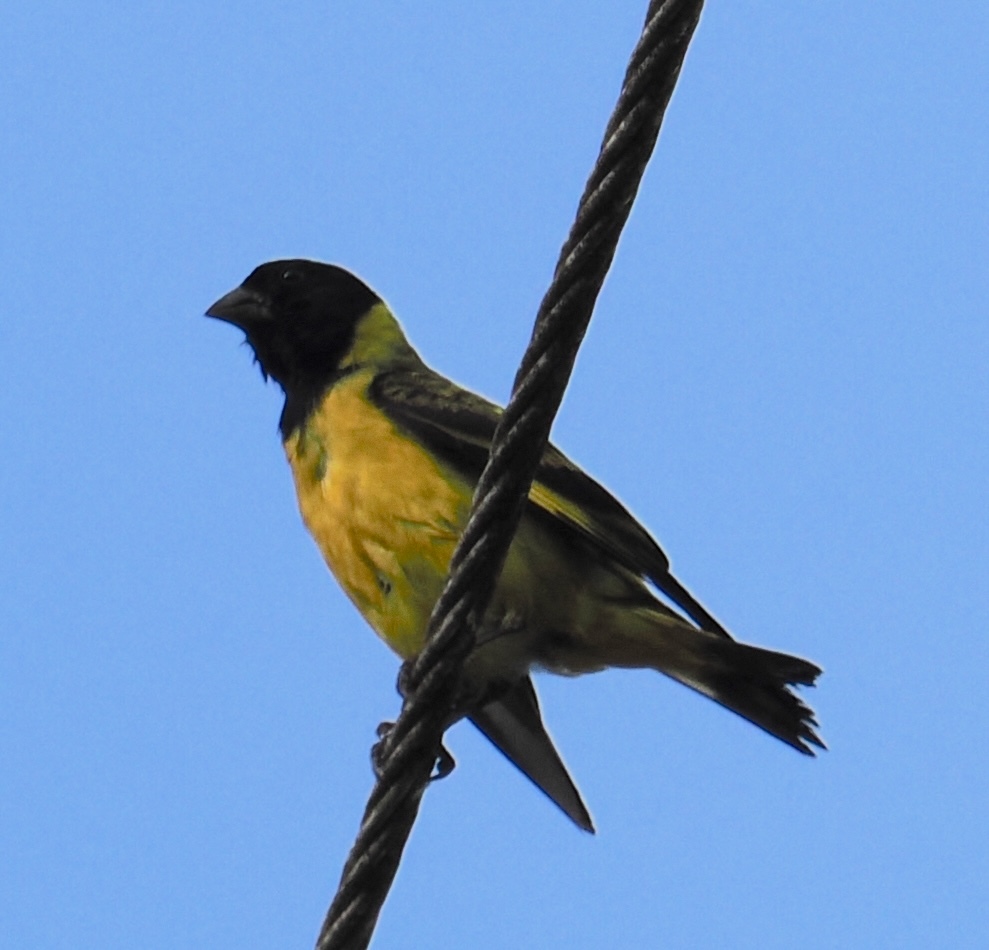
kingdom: Animalia
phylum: Chordata
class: Aves
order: Passeriformes
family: Fringillidae
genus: Spinus
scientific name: Spinus magellanicus
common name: Hooded siskin
